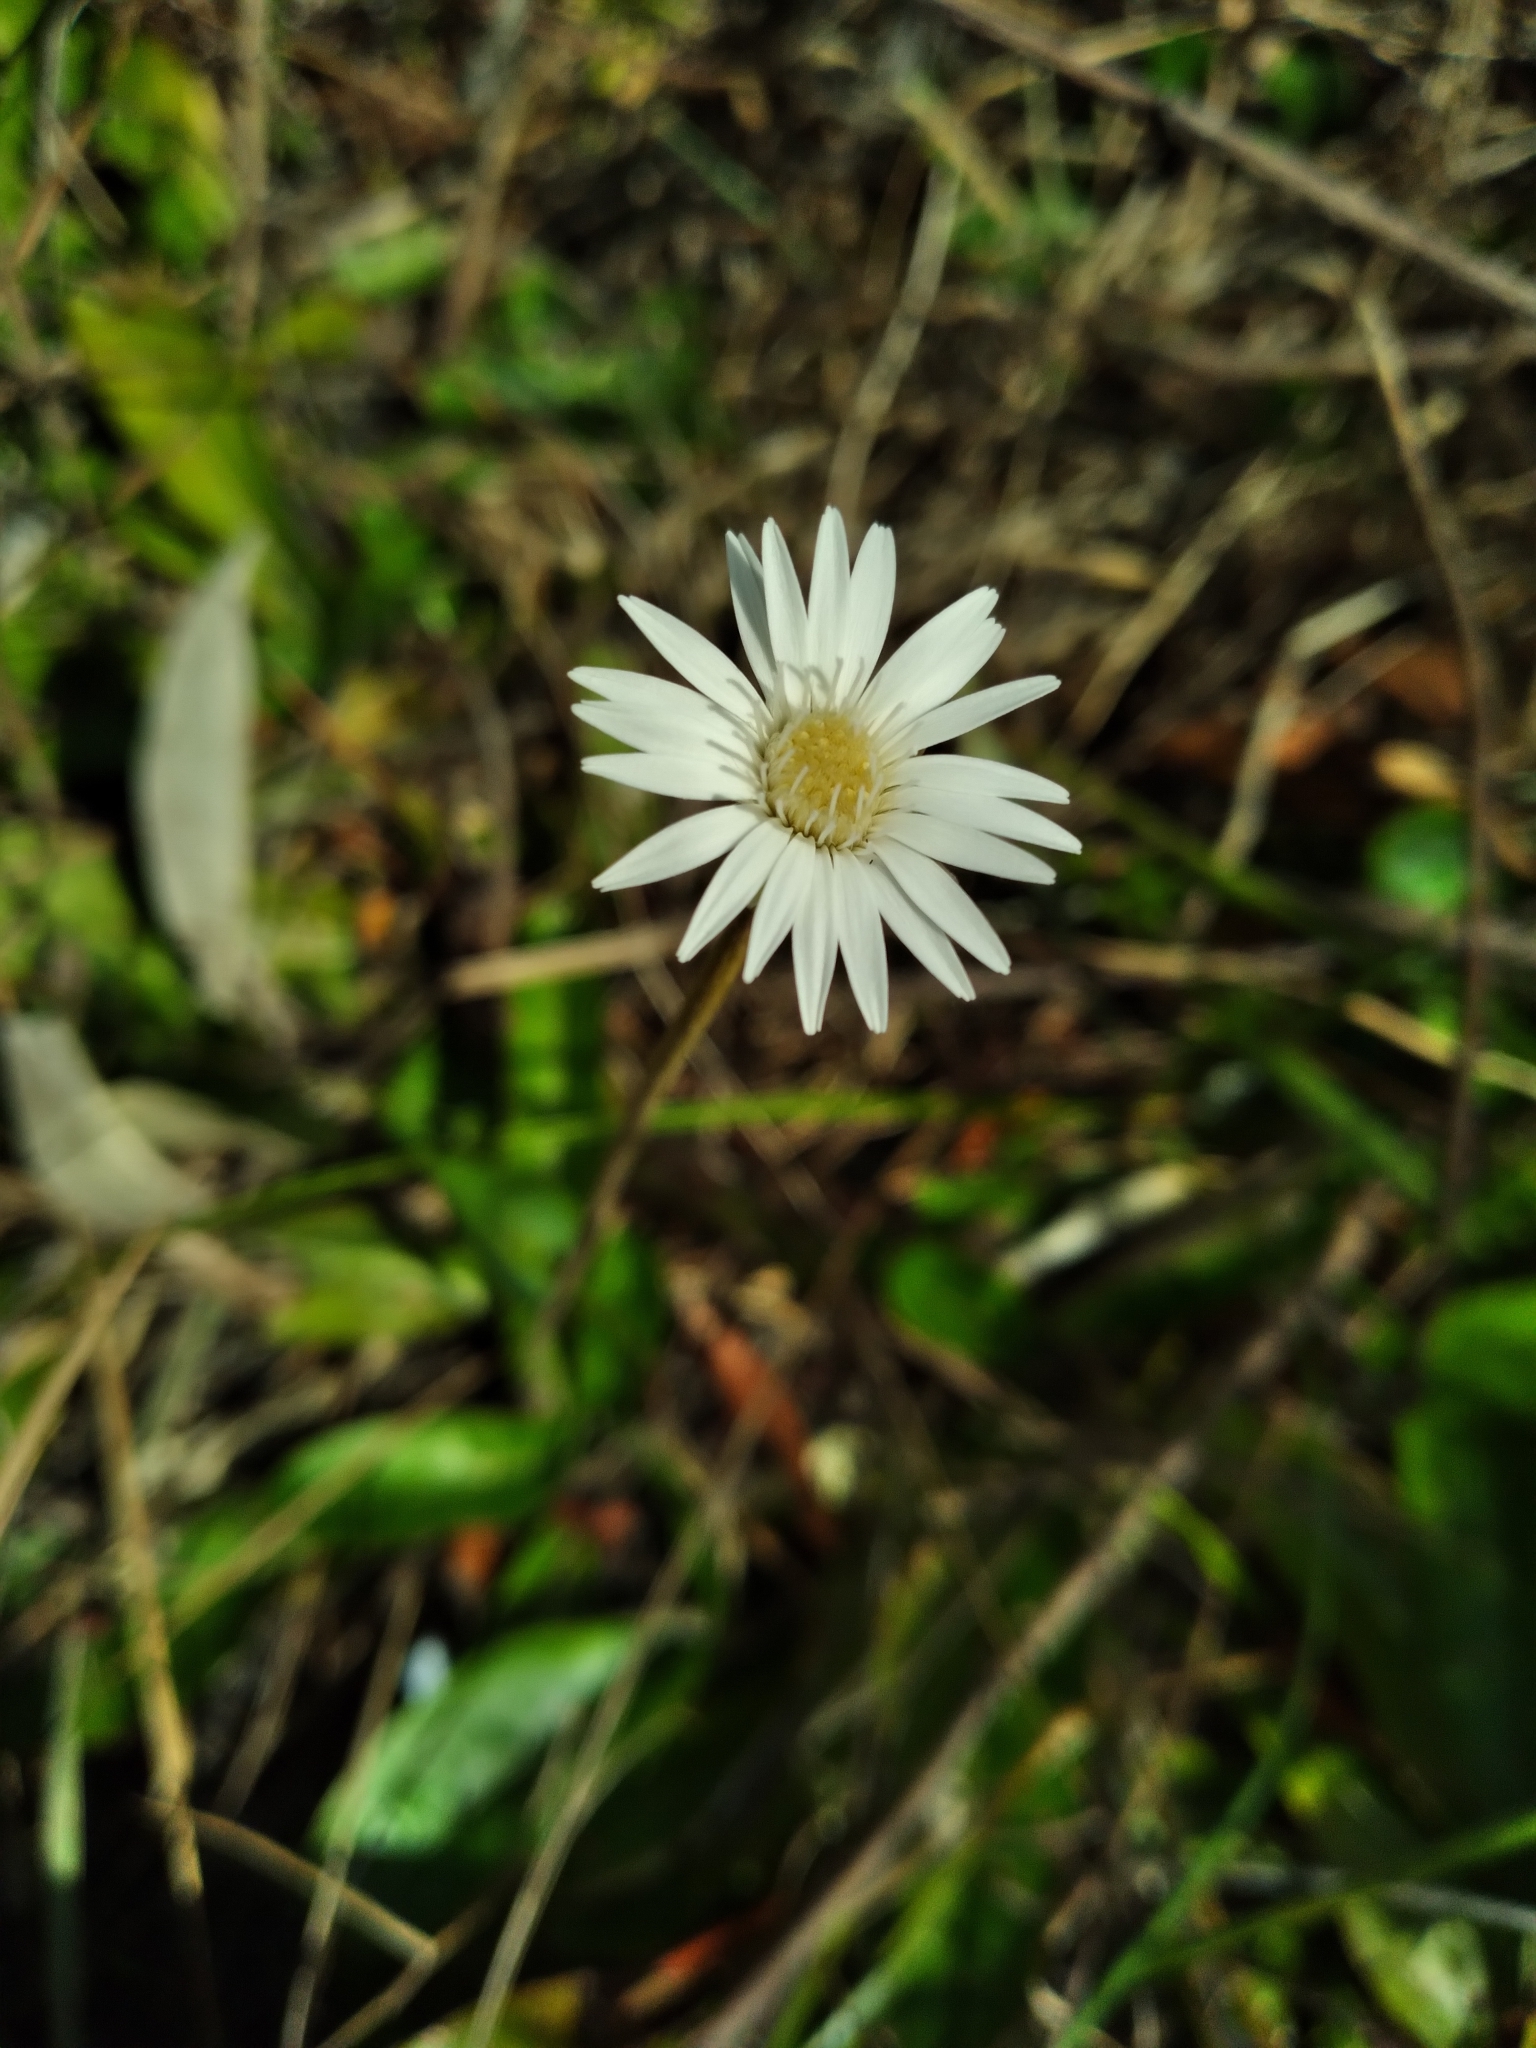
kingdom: Plantae
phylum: Tracheophyta
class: Magnoliopsida
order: Asterales
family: Asteraceae
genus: Chaptalia
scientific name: Chaptalia tomentosa
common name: Woolly sunbonnet
